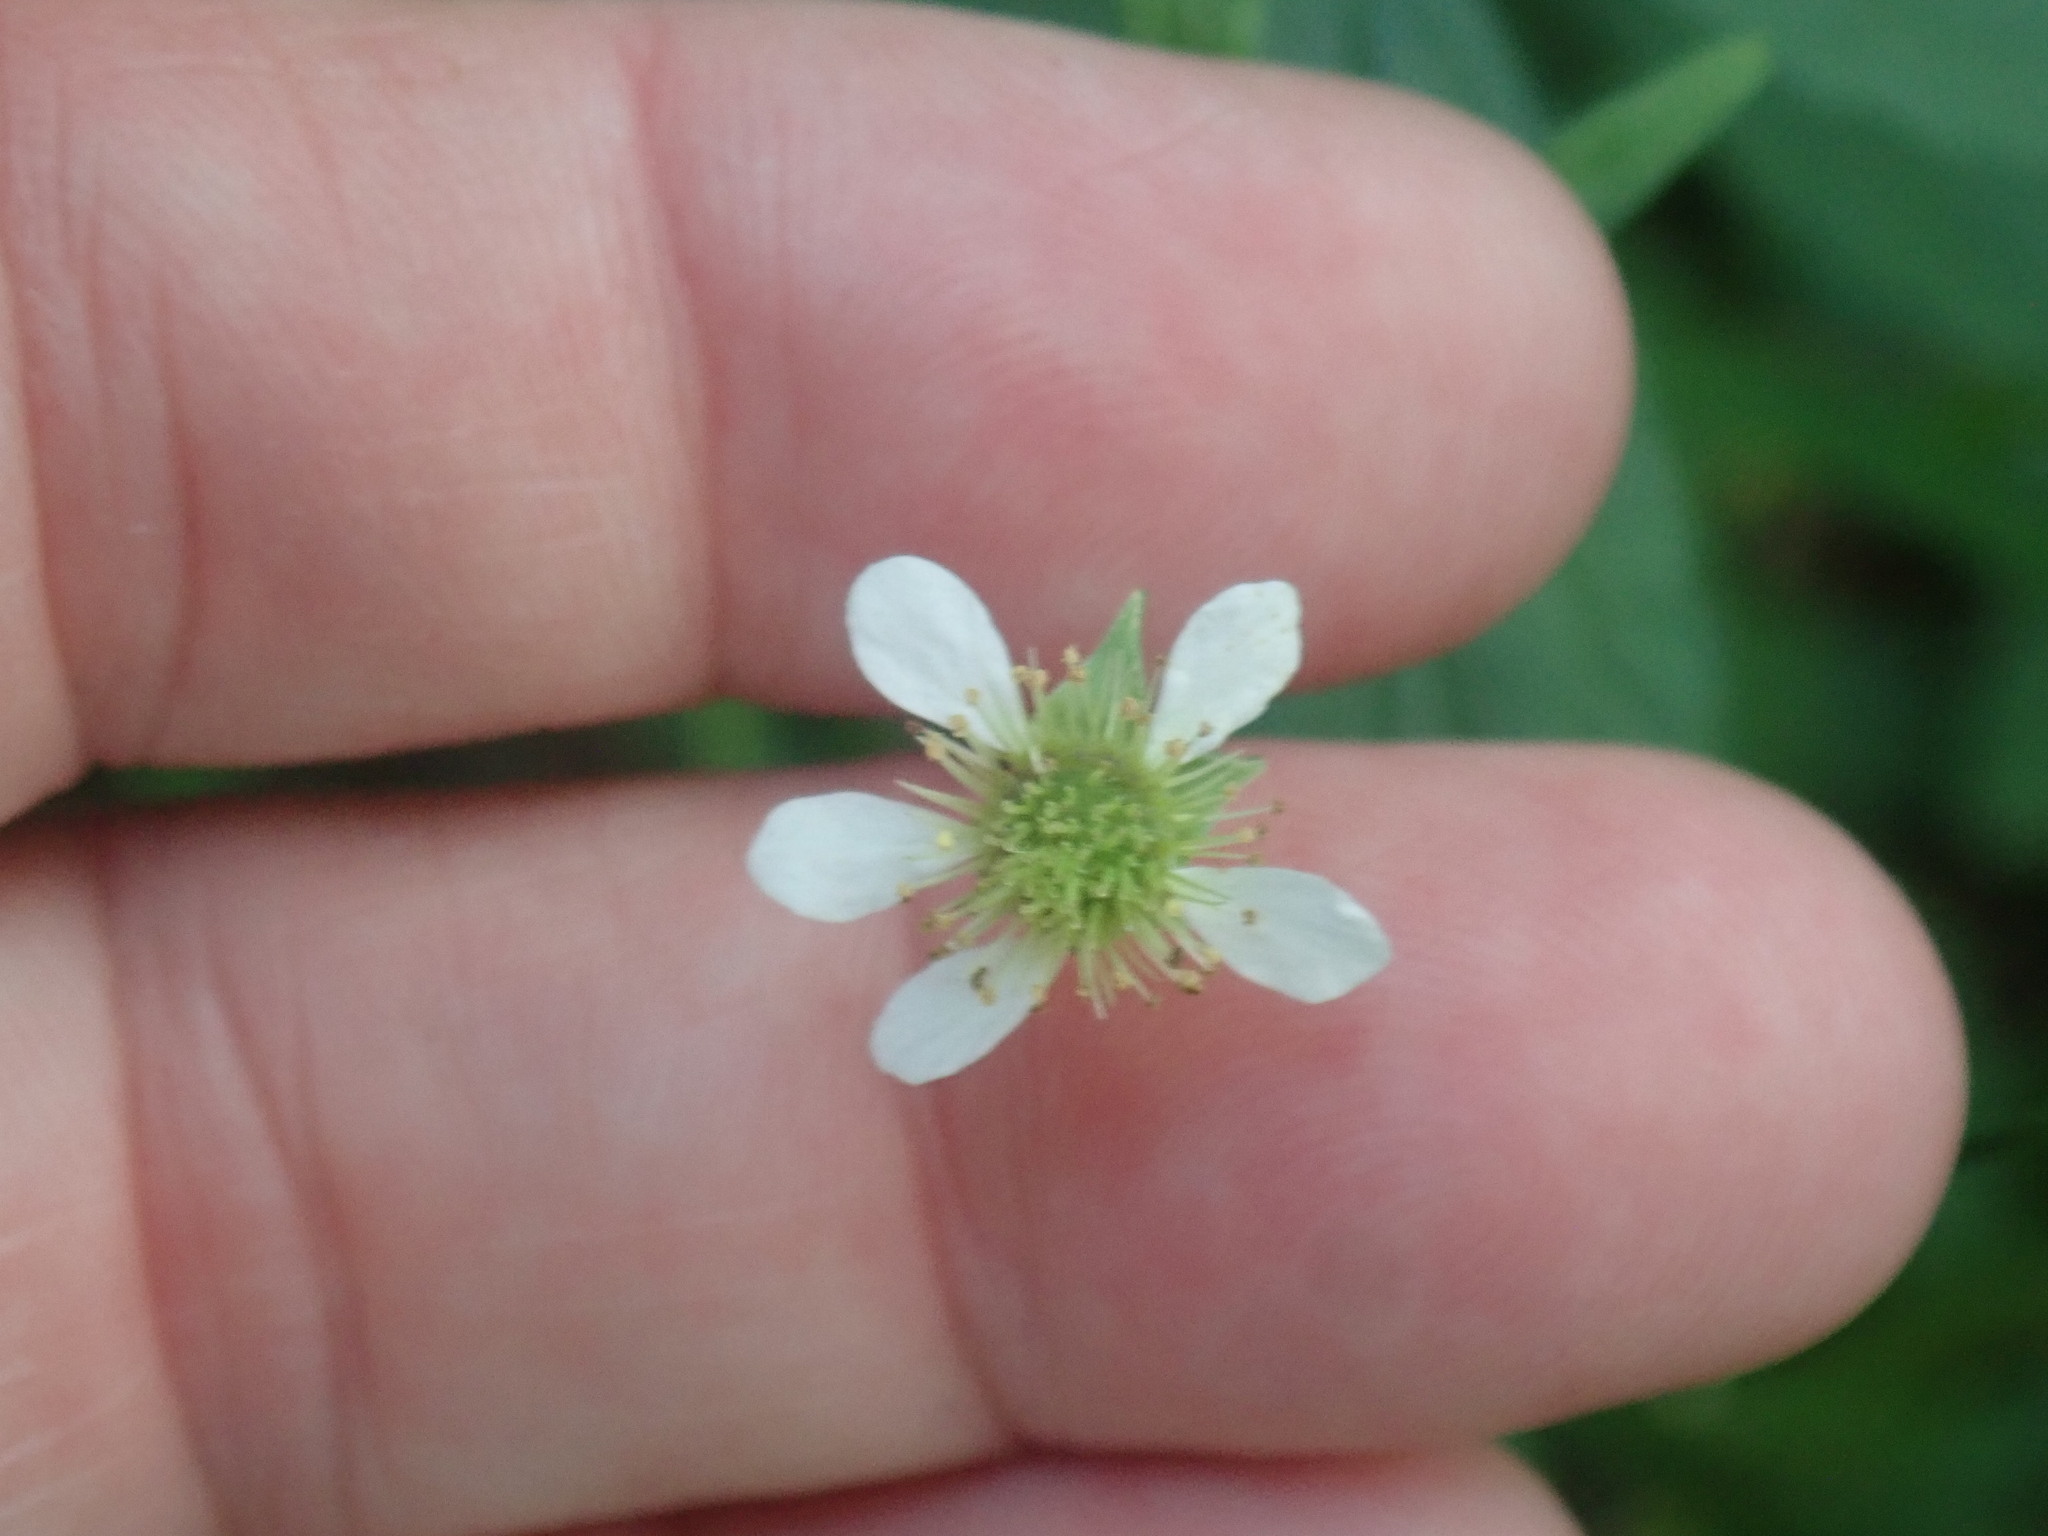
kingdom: Plantae
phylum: Tracheophyta
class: Magnoliopsida
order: Rosales
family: Rosaceae
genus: Geum
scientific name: Geum canadense
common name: White avens
